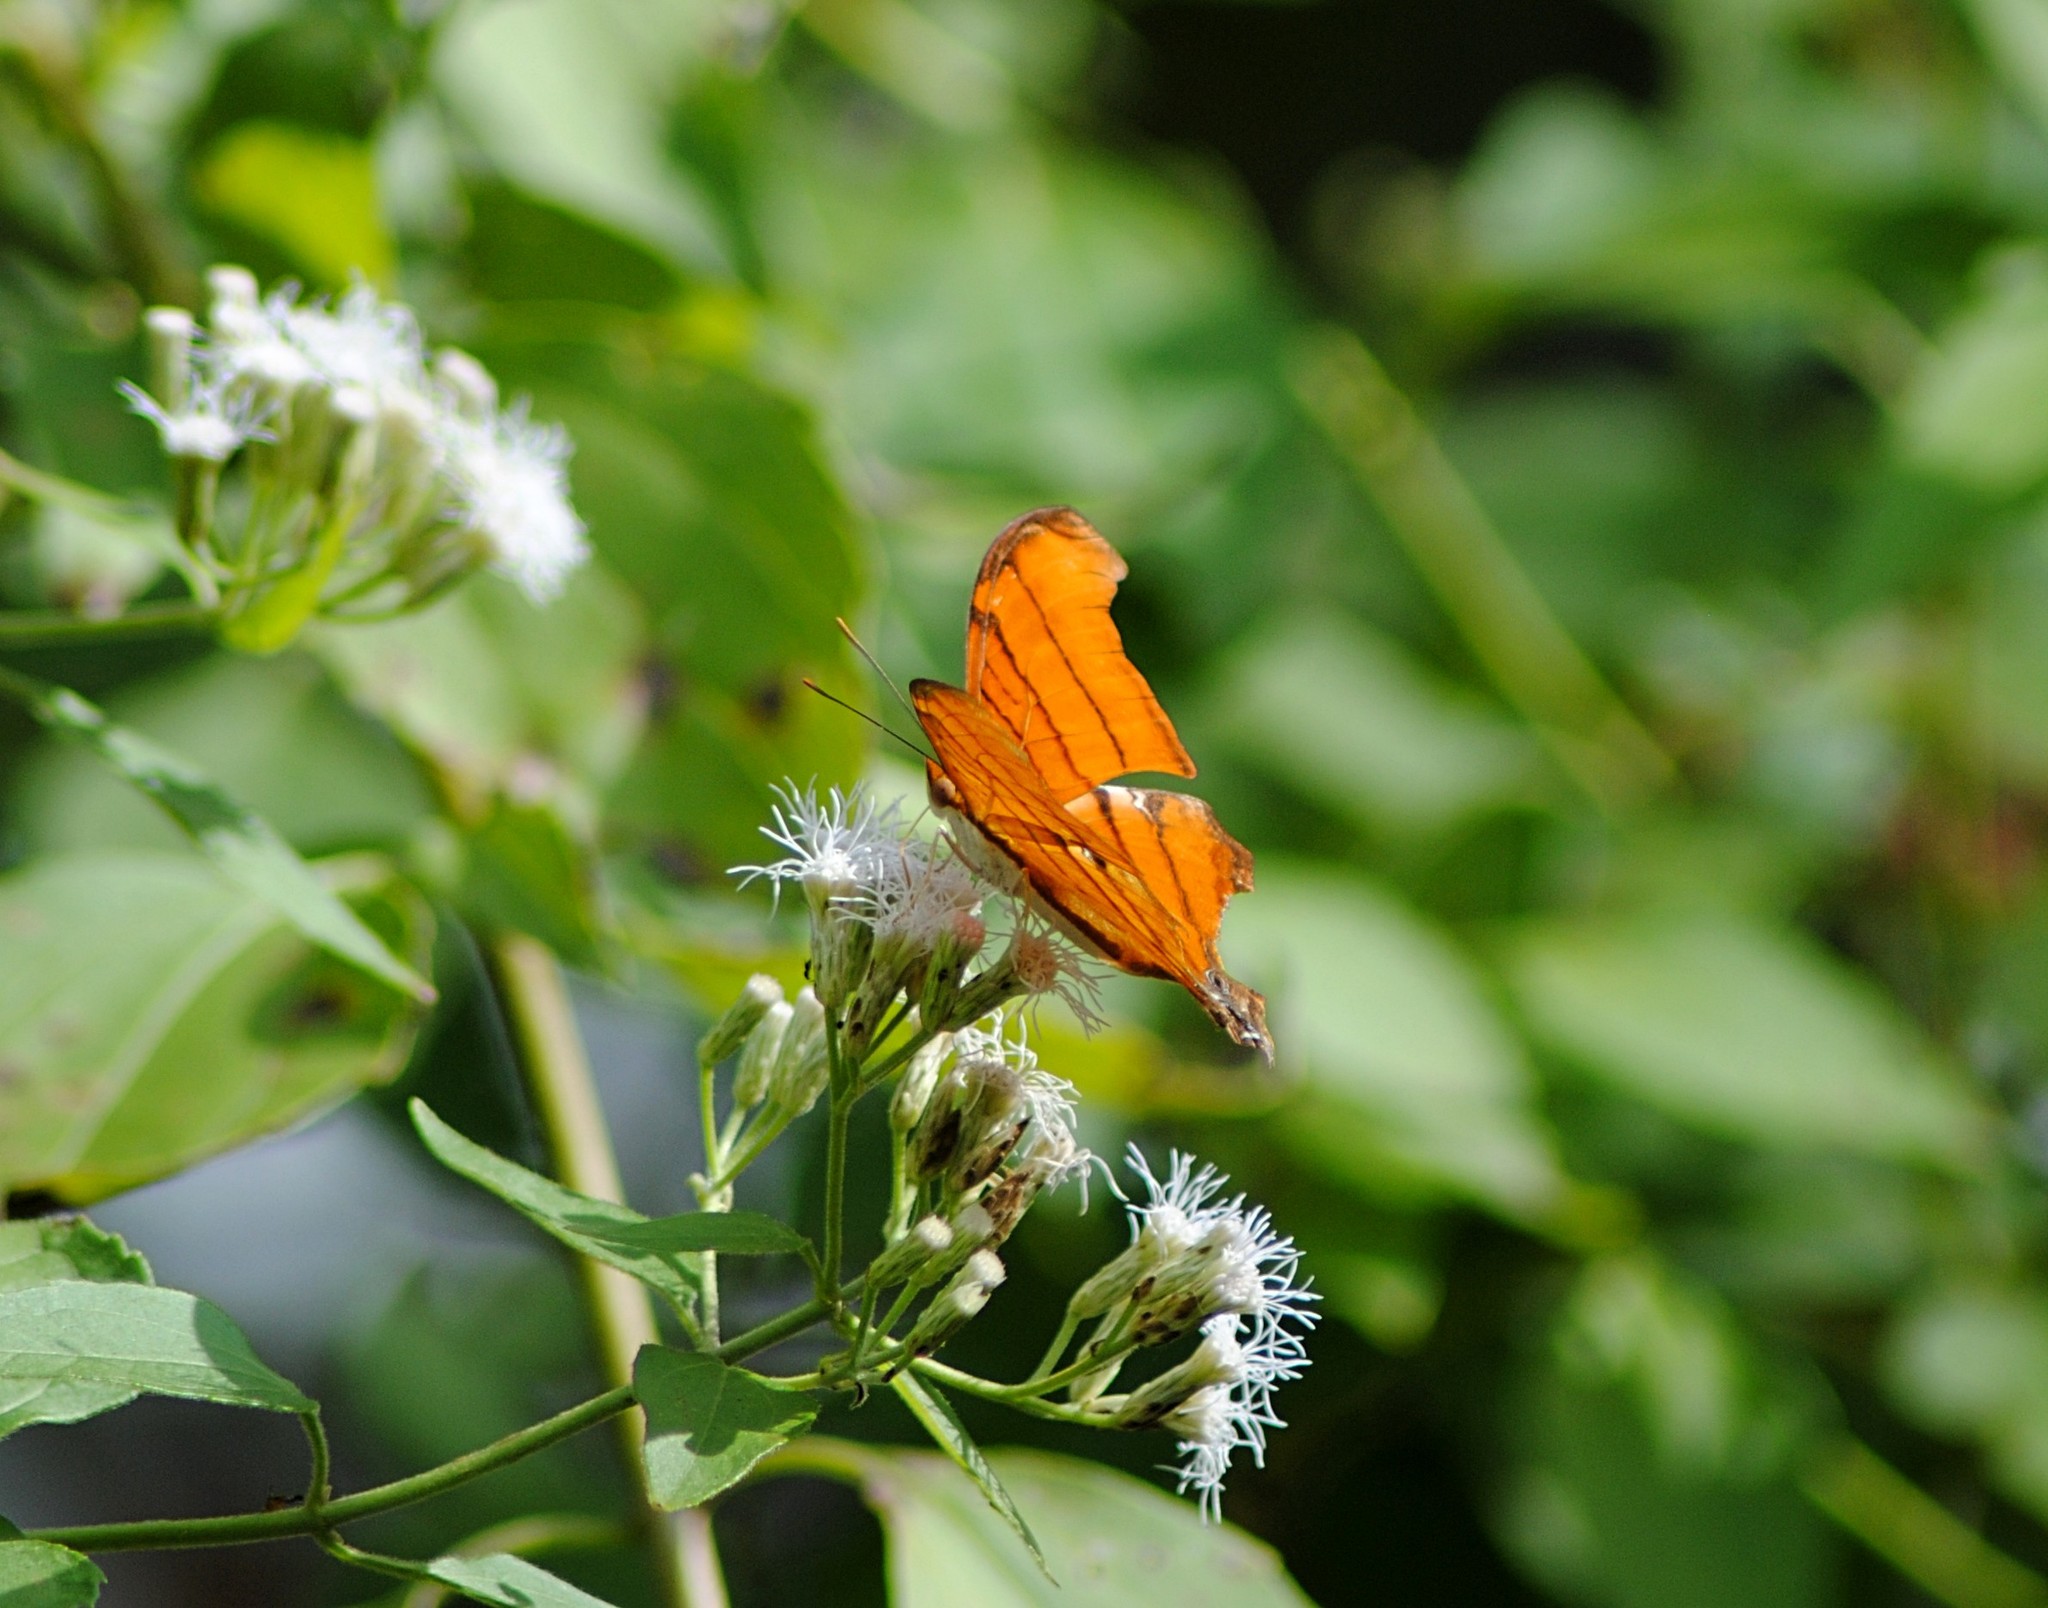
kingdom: Animalia
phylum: Arthropoda
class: Insecta
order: Lepidoptera
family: Nymphalidae
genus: Marpesia
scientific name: Marpesia petreus
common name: Red dagger wing
